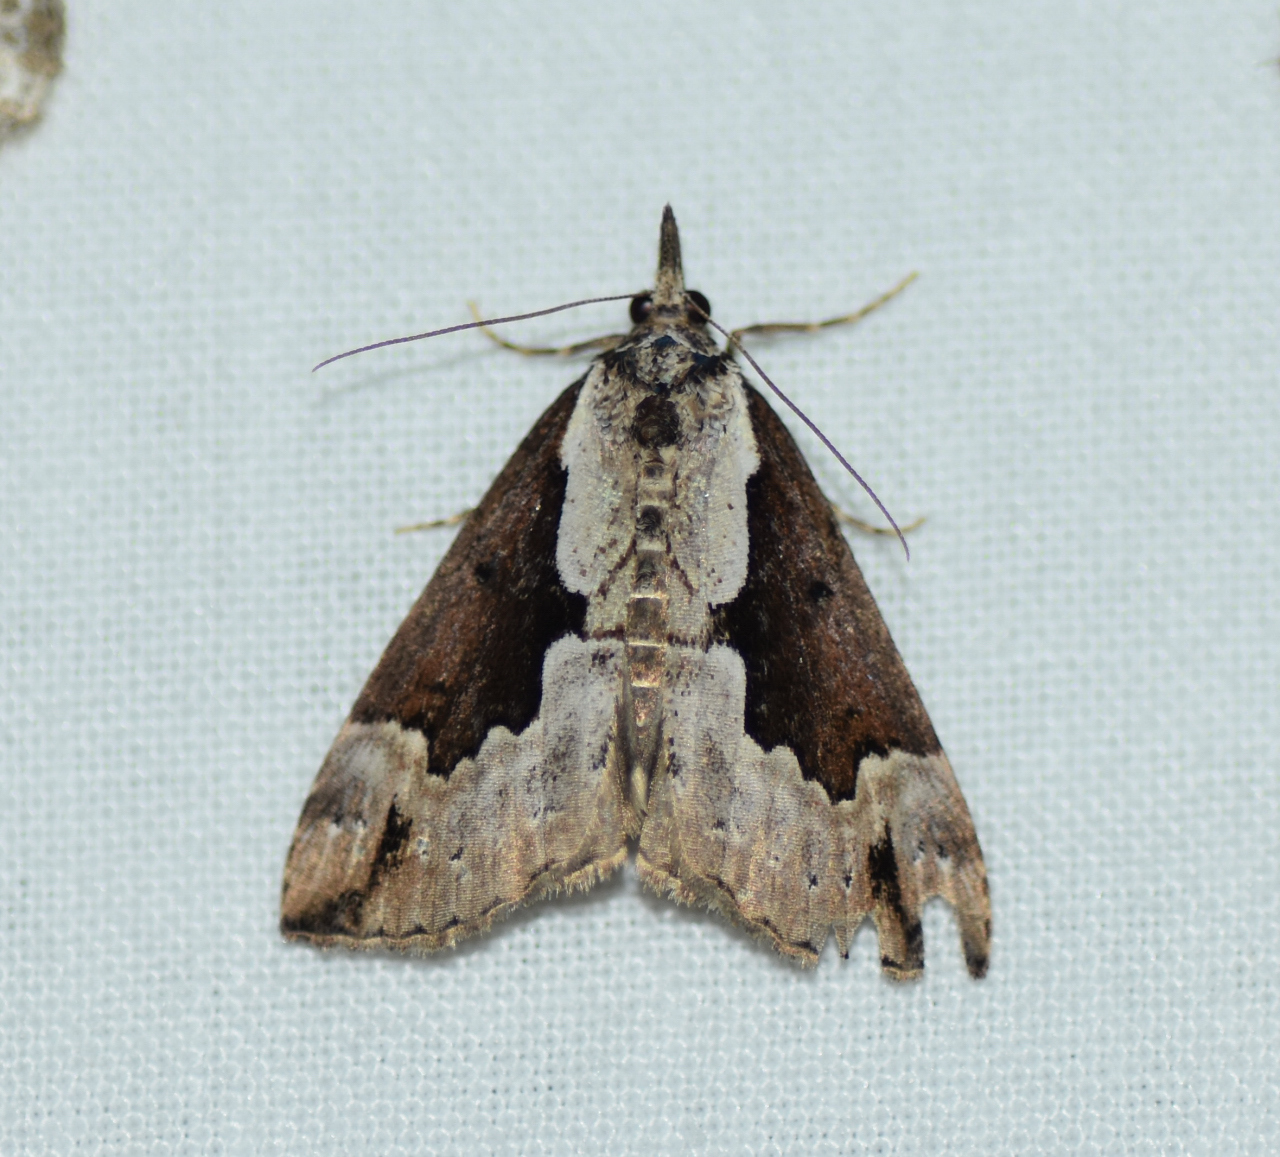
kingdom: Animalia
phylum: Arthropoda
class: Insecta
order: Lepidoptera
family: Erebidae
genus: Hypena
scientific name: Hypena baltimoralis
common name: Baltimore snout
